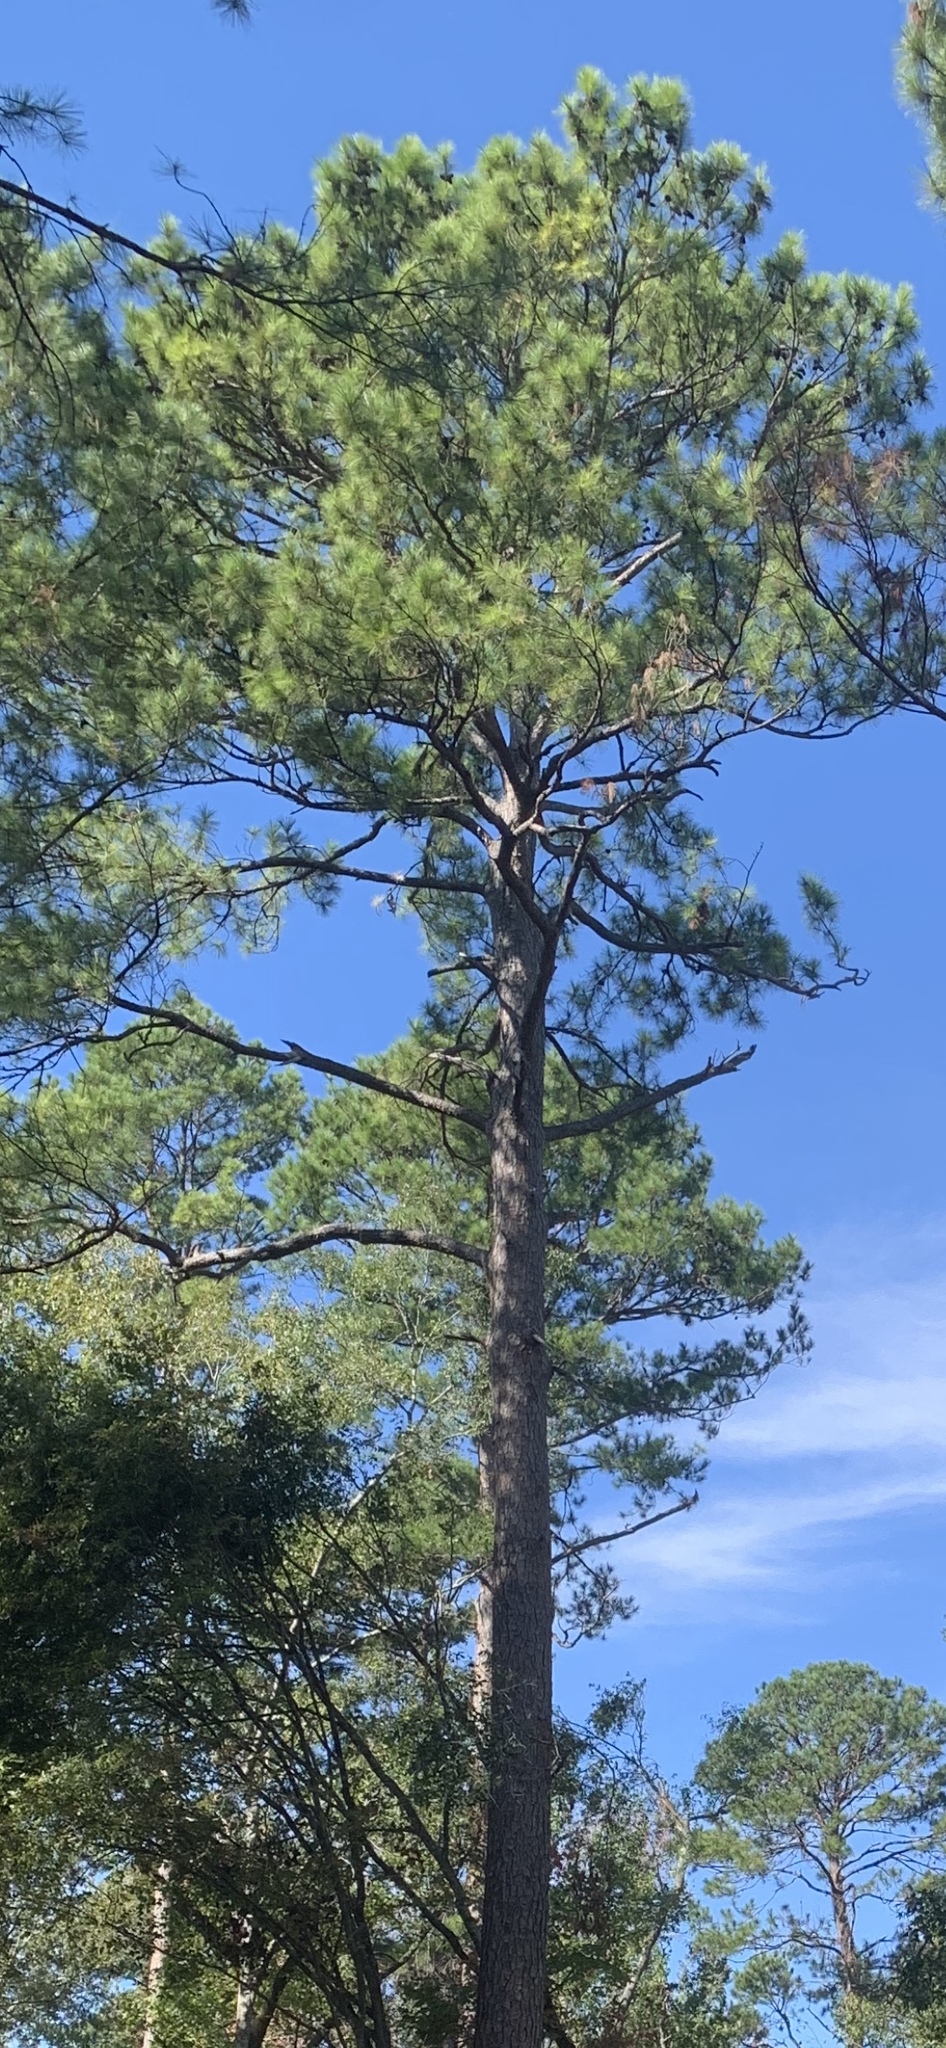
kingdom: Plantae
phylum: Tracheophyta
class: Pinopsida
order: Pinales
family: Pinaceae
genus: Pinus
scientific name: Pinus taeda
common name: Loblolly pine
